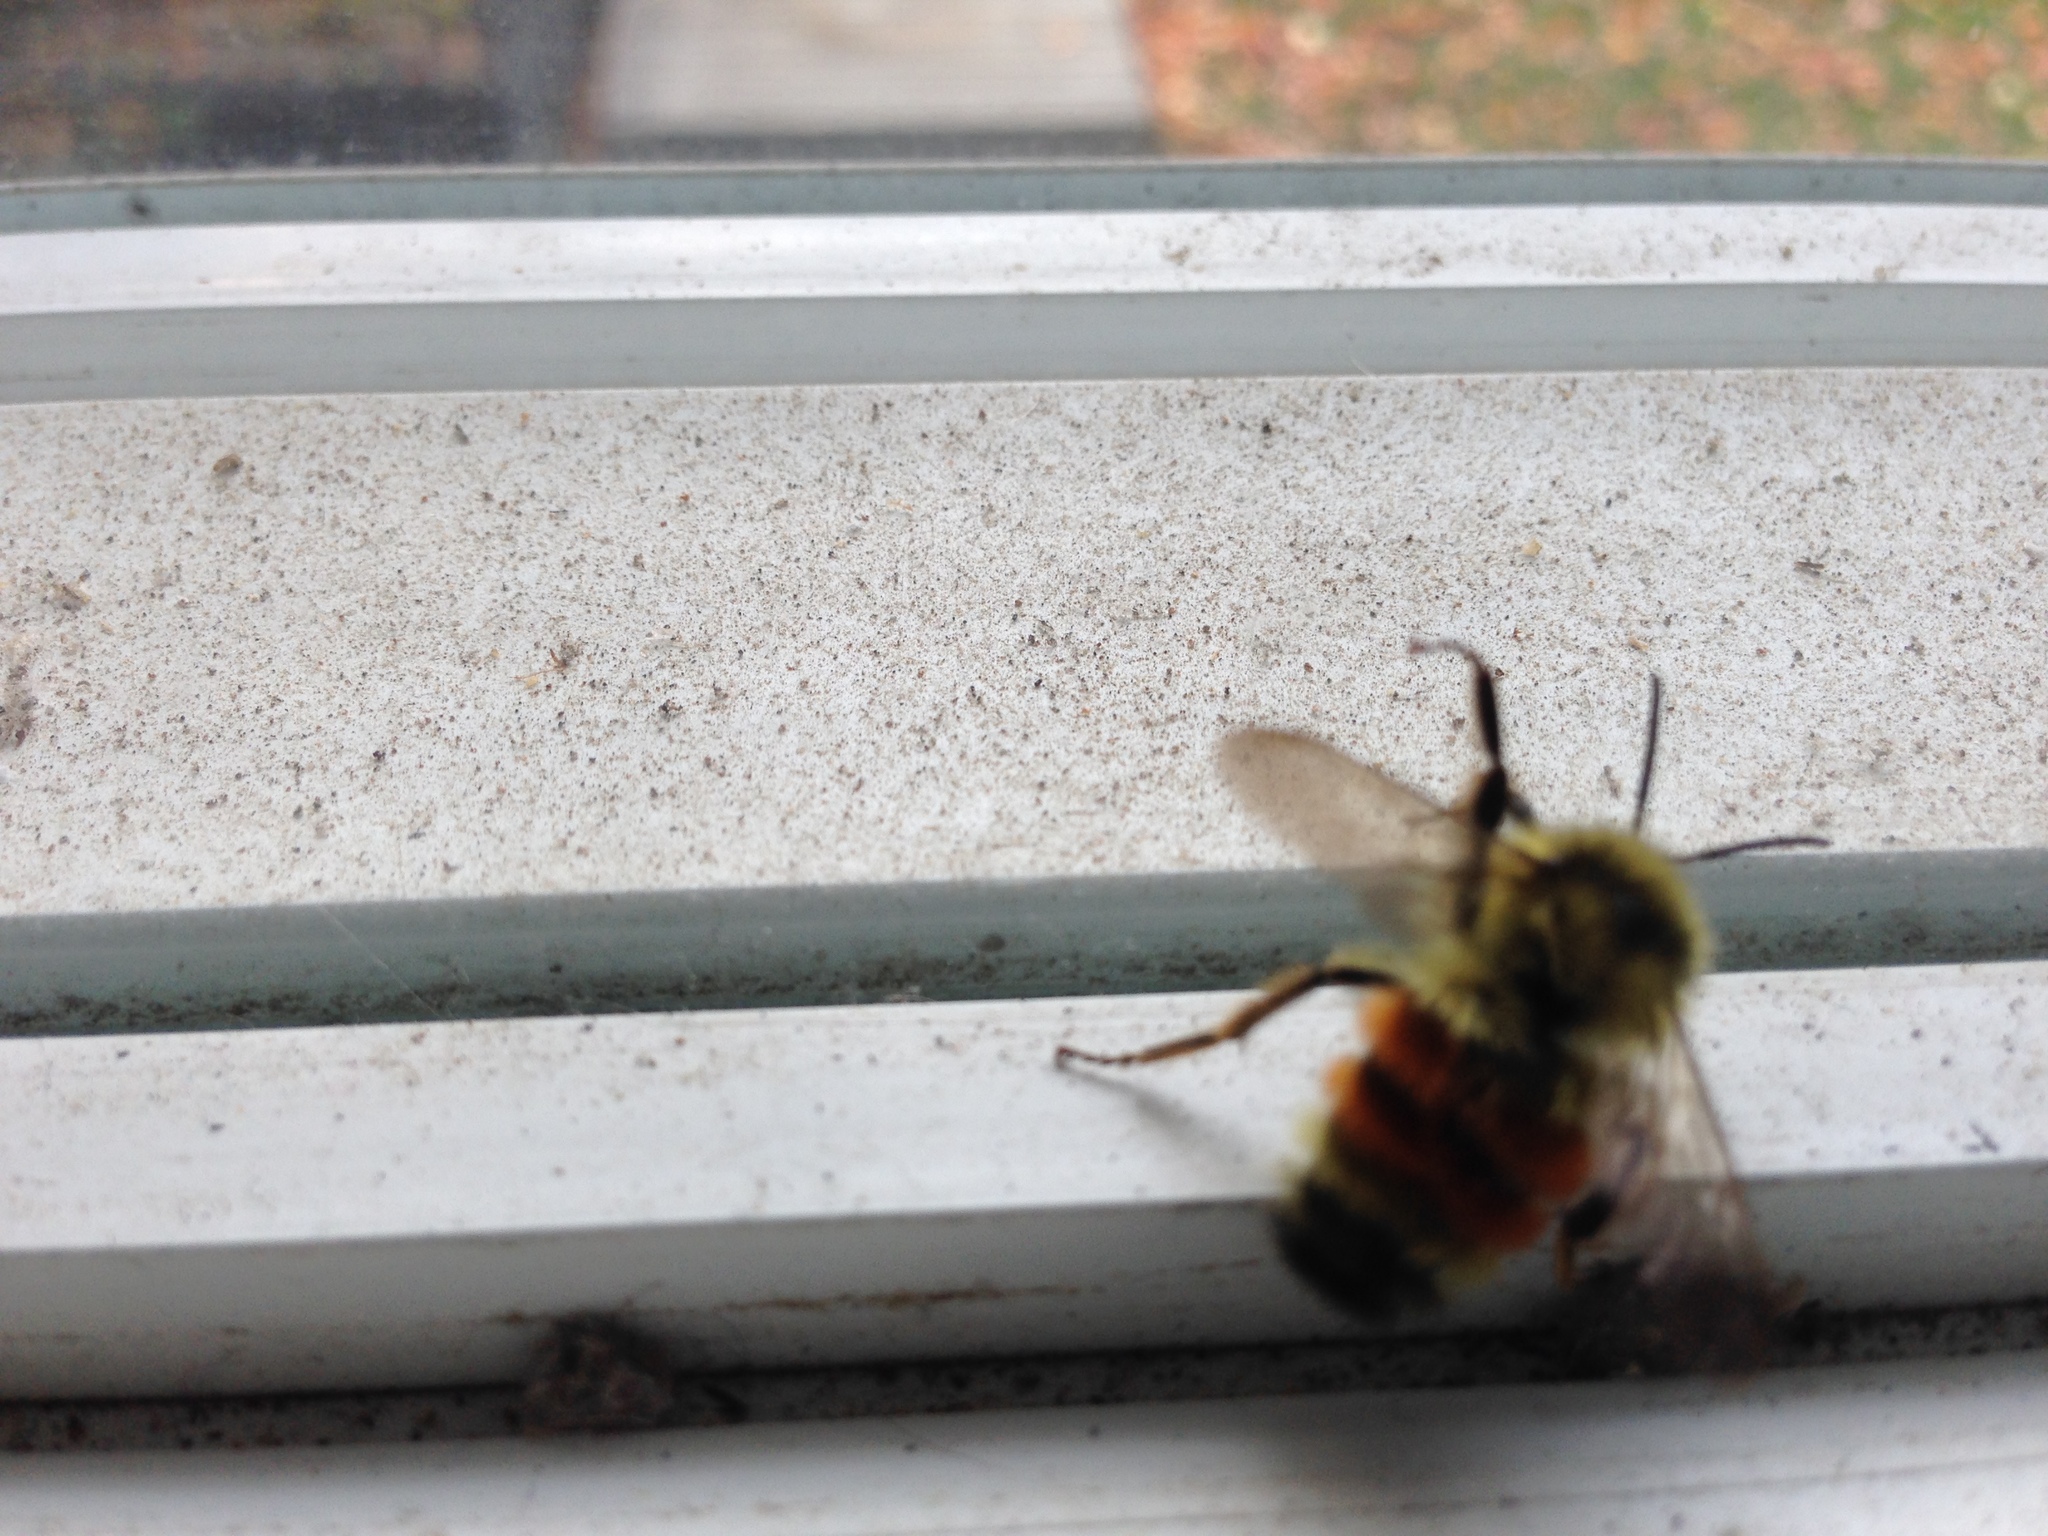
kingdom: Animalia
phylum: Arthropoda
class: Insecta
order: Hymenoptera
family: Apidae
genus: Bombus
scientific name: Bombus ternarius
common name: Tri-colored bumble bee
